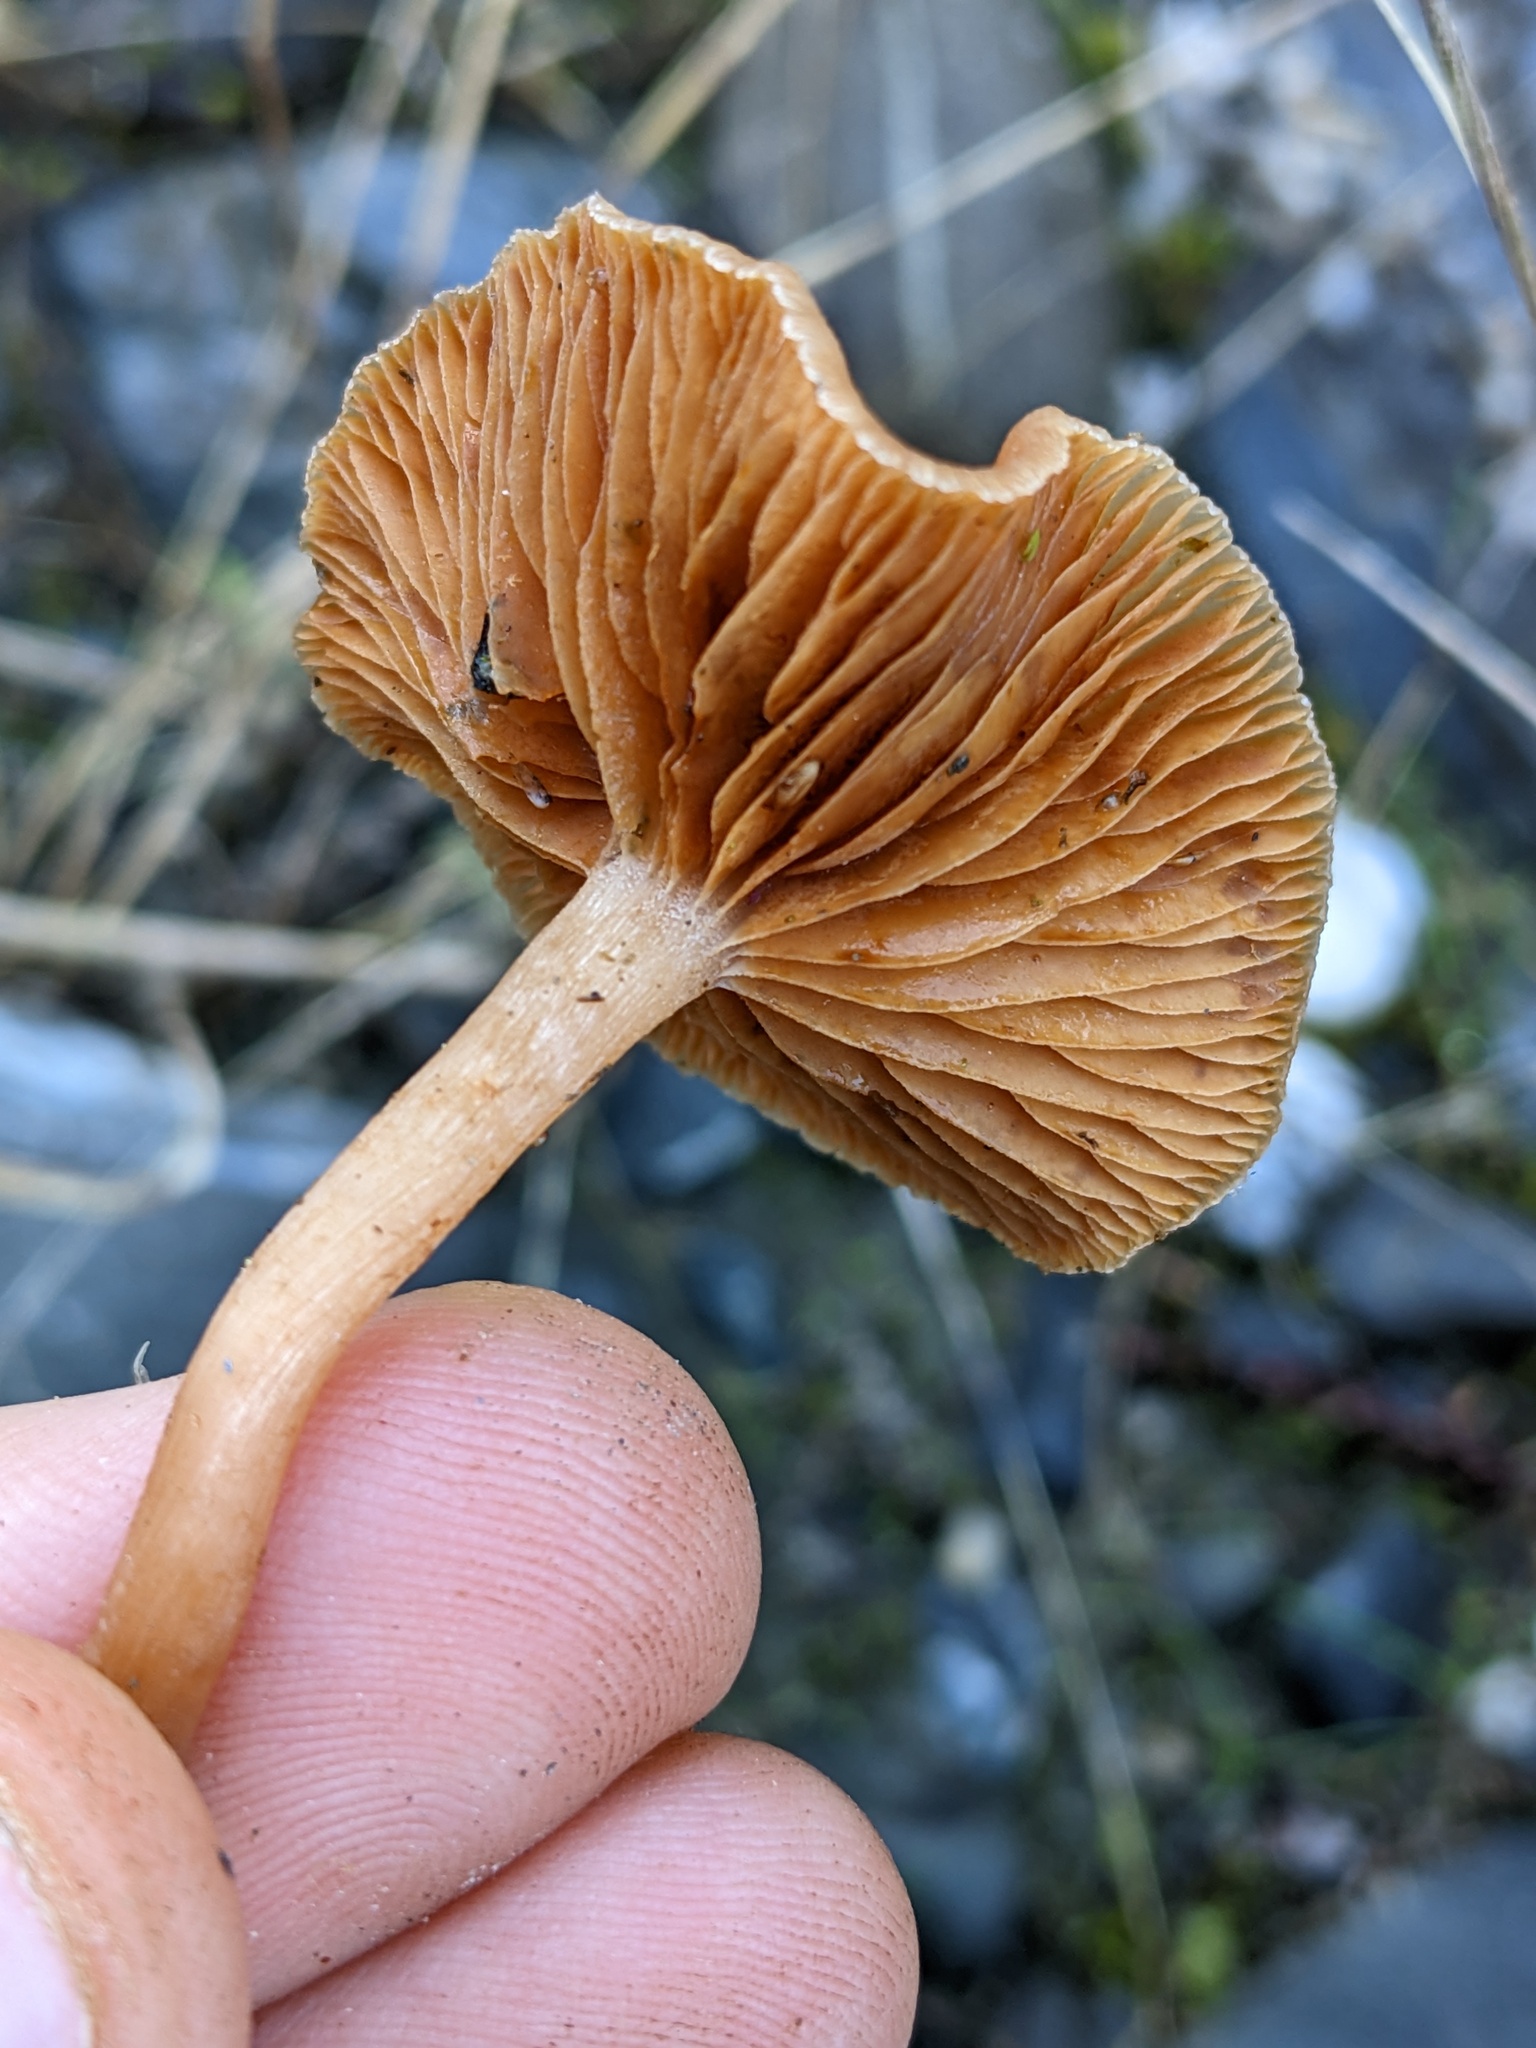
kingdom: Fungi
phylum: Basidiomycota
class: Agaricomycetes
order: Agaricales
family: Tubariaceae
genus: Tubaria
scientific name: Tubaria furfuracea
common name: Scurfy twiglet
